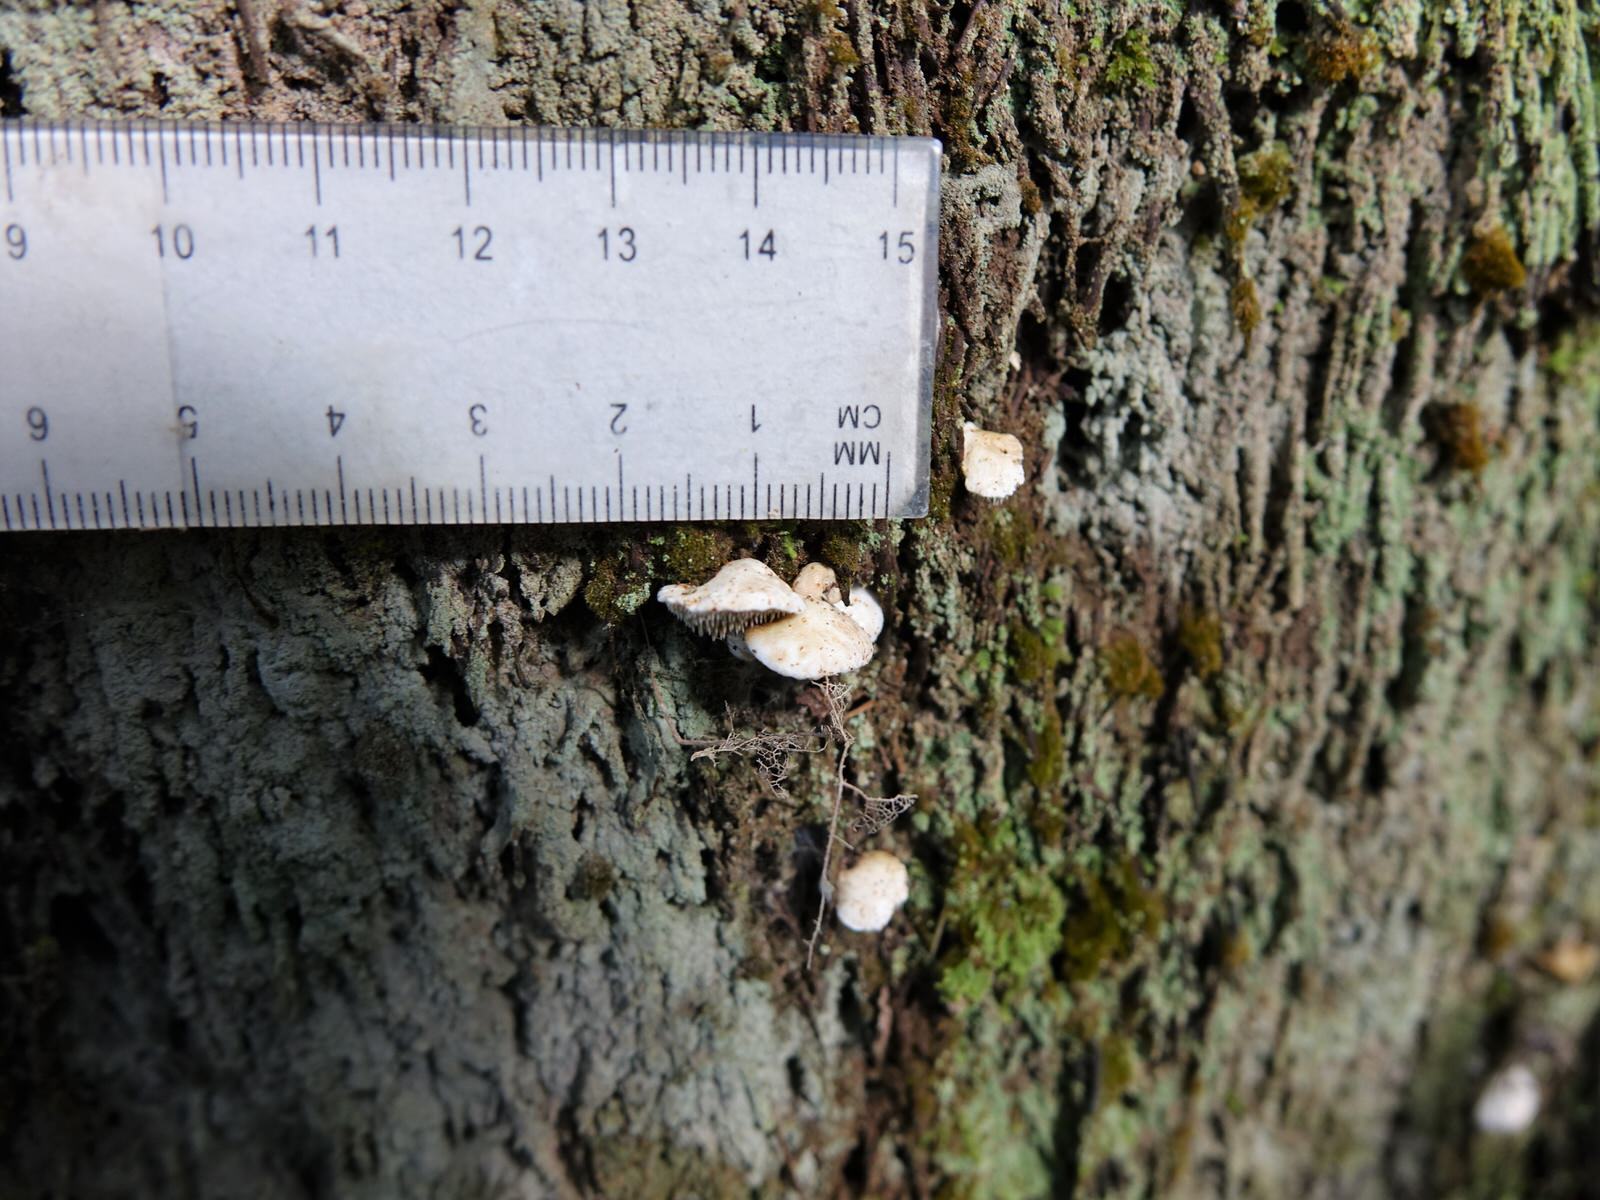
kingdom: Fungi
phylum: Basidiomycota
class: Agaricomycetes
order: Gomphales
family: Clavariadelphaceae
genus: Beenakia
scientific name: Beenakia dacostae
